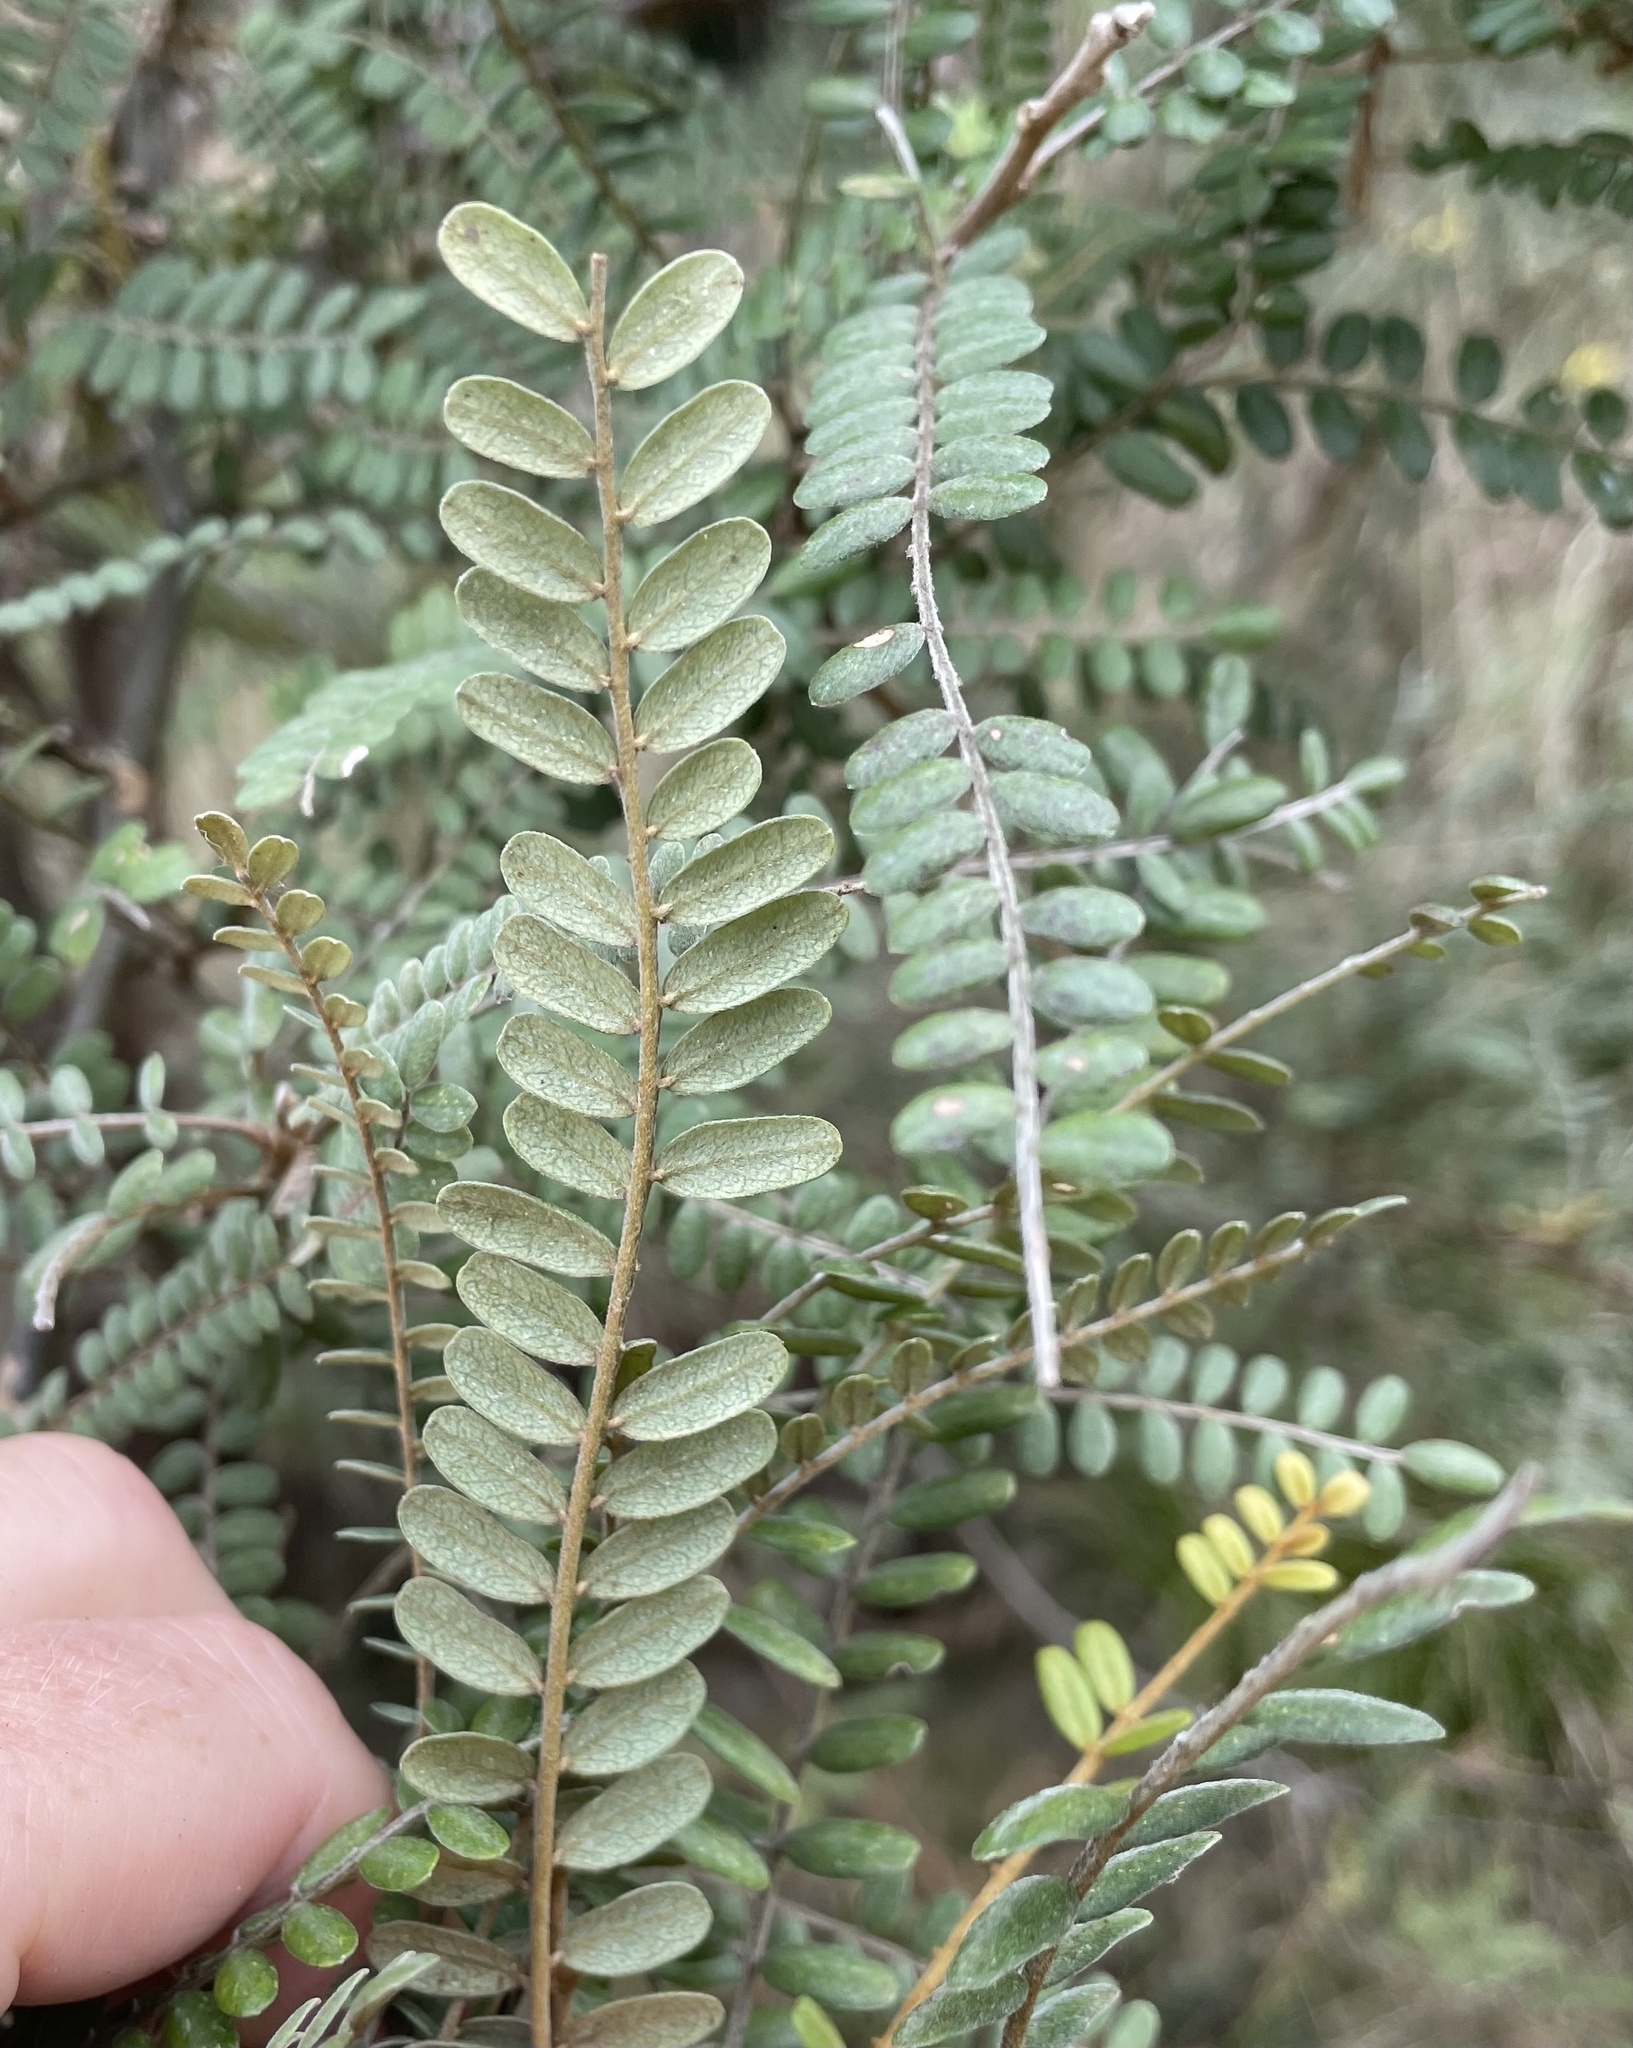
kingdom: Plantae
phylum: Tracheophyta
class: Magnoliopsida
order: Fabales
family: Fabaceae
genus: Sophora
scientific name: Sophora chathamica
